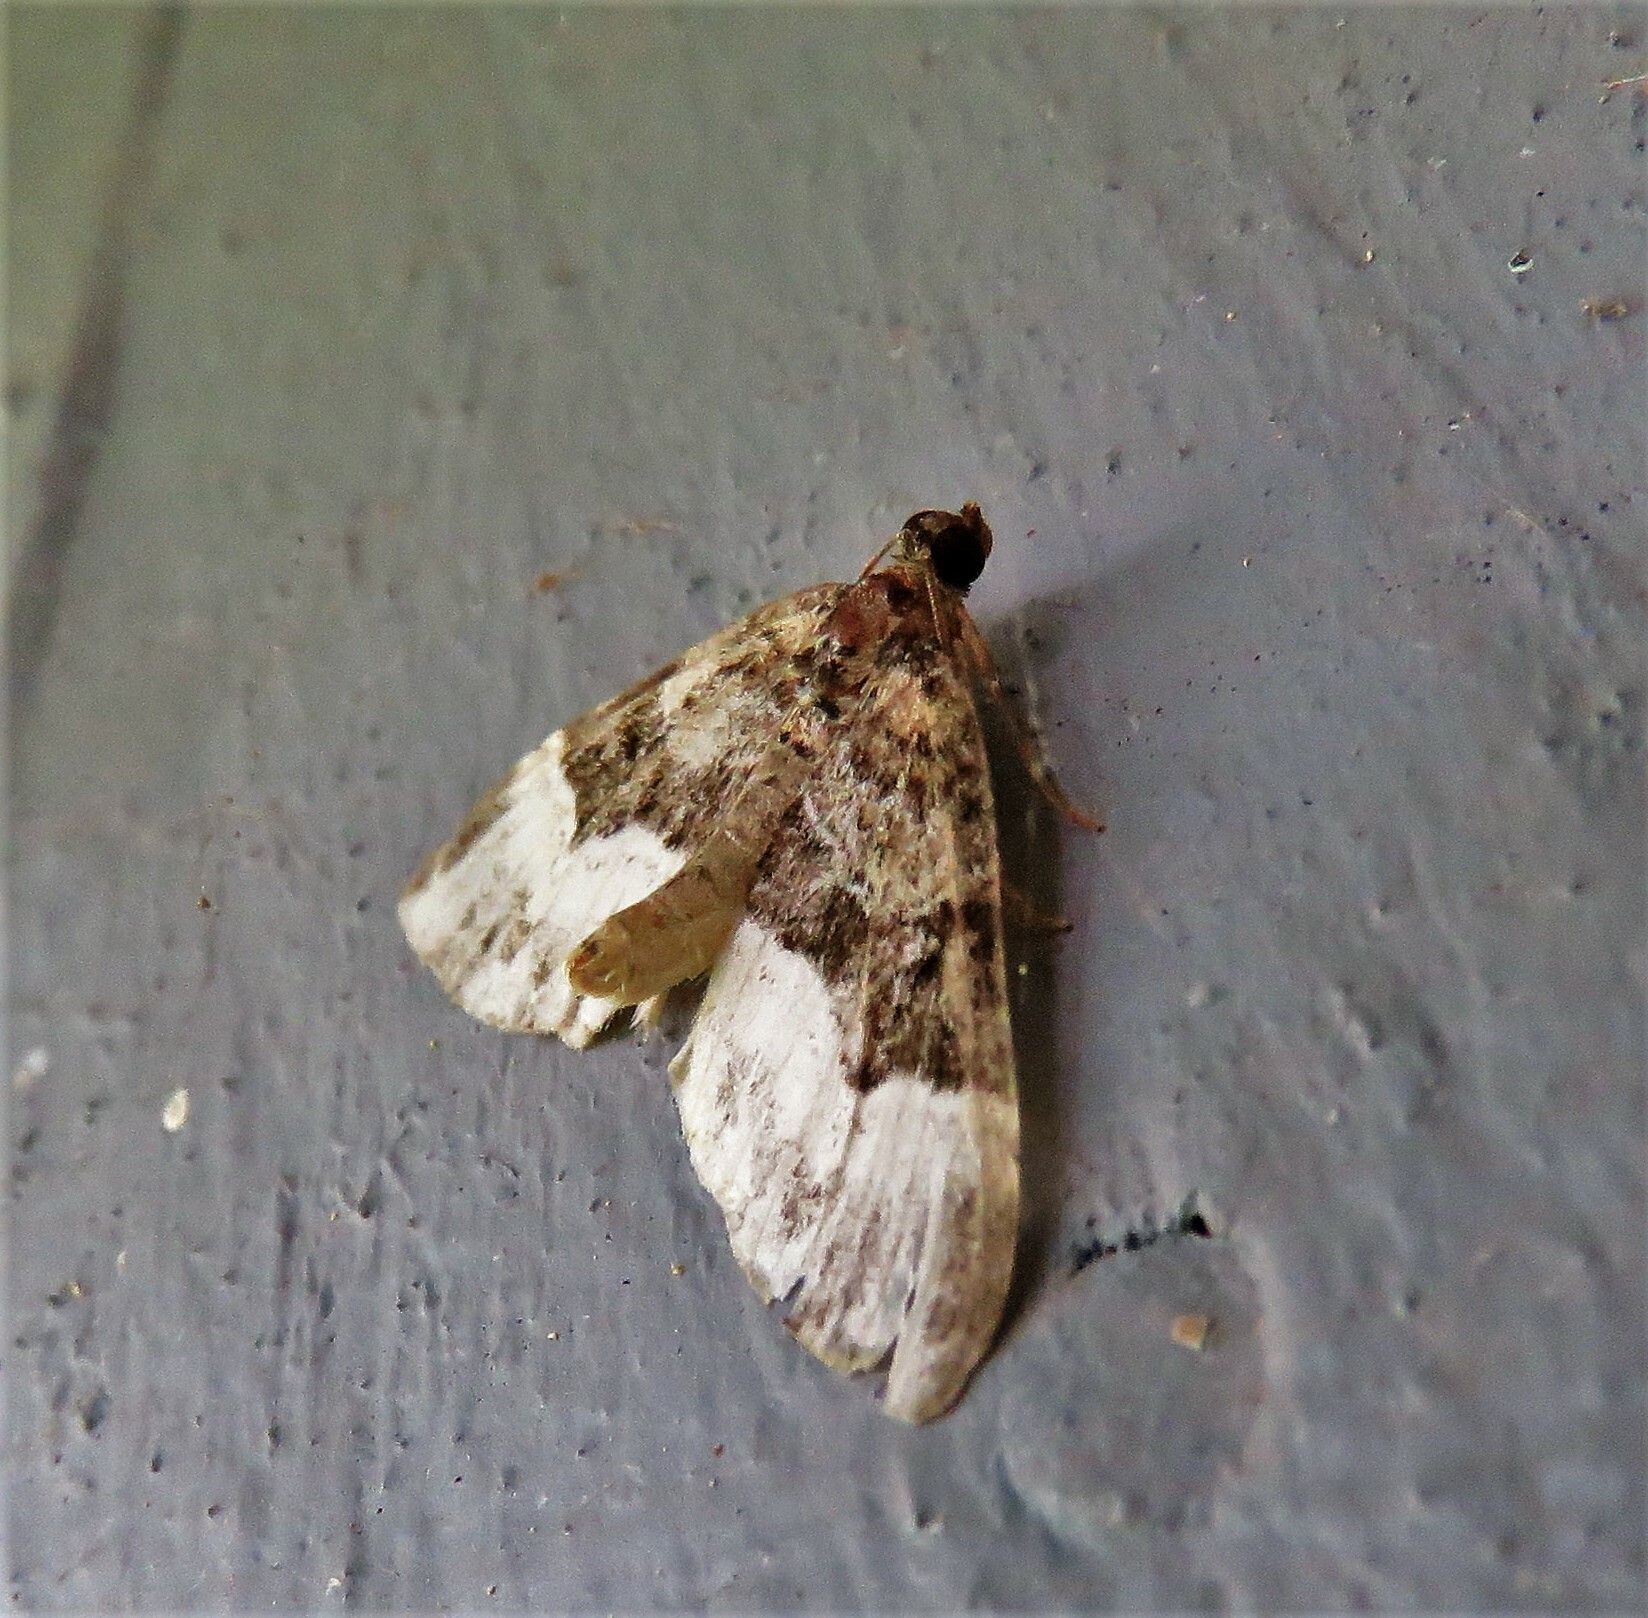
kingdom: Animalia
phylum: Arthropoda
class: Insecta
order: Lepidoptera
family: Geometridae
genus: Euphyia
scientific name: Euphyia intermediata
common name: Sharp-angled carpet
